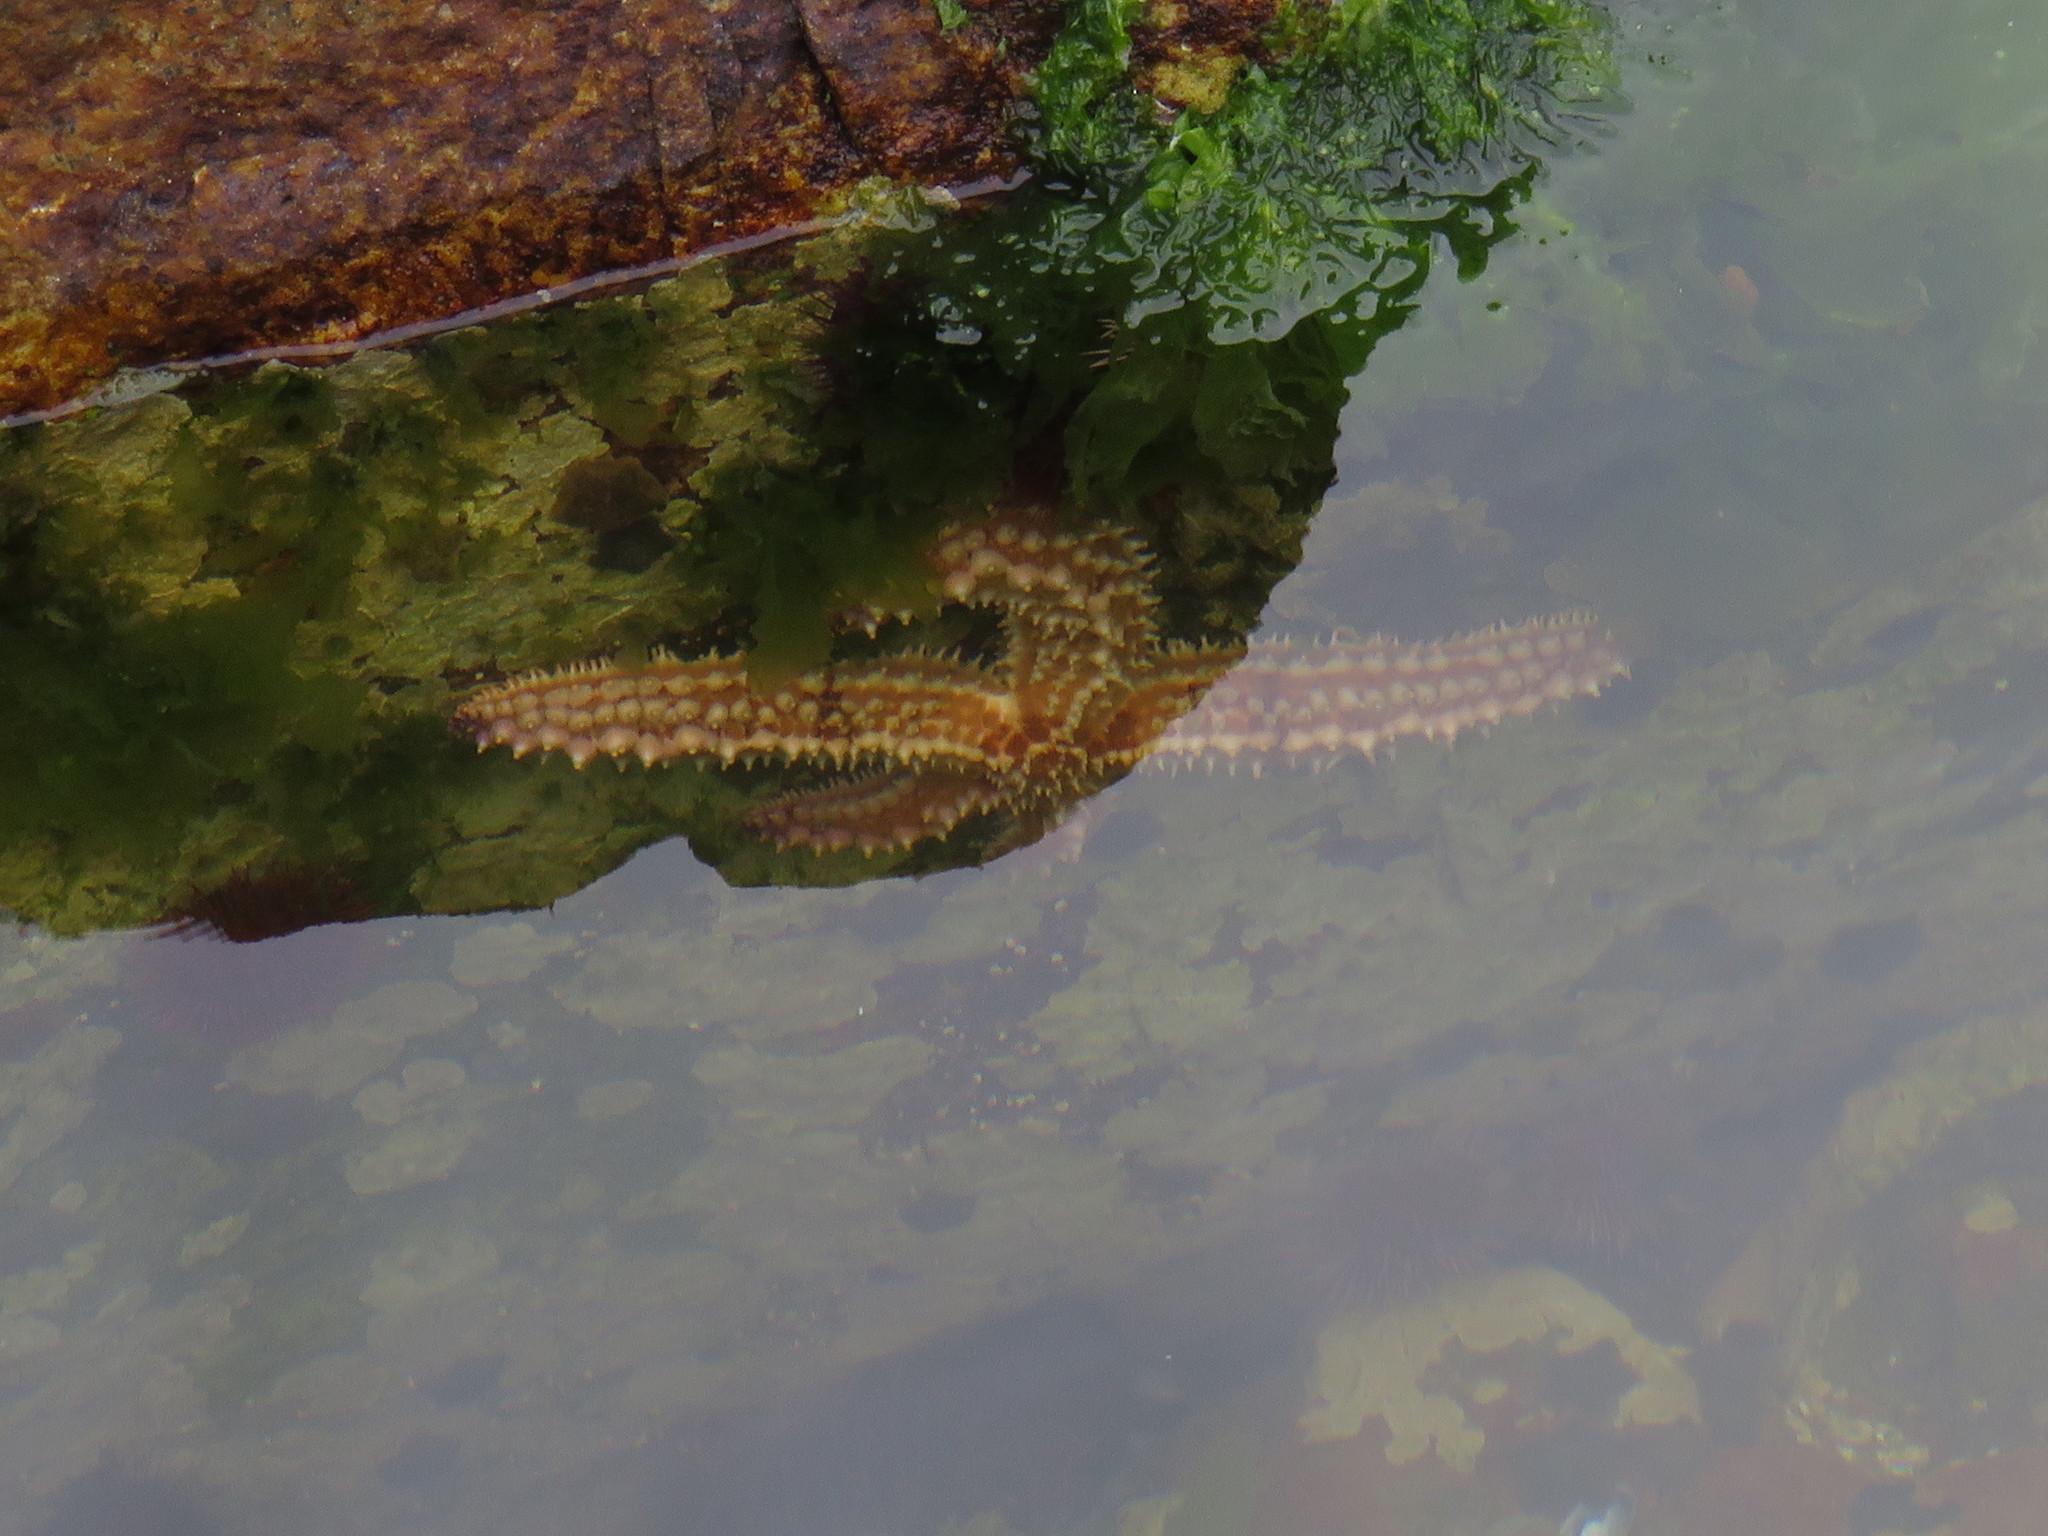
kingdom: Animalia
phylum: Echinodermata
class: Asteroidea
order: Forcipulatida
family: Asteriidae
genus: Marthasterias
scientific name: Marthasterias africana
